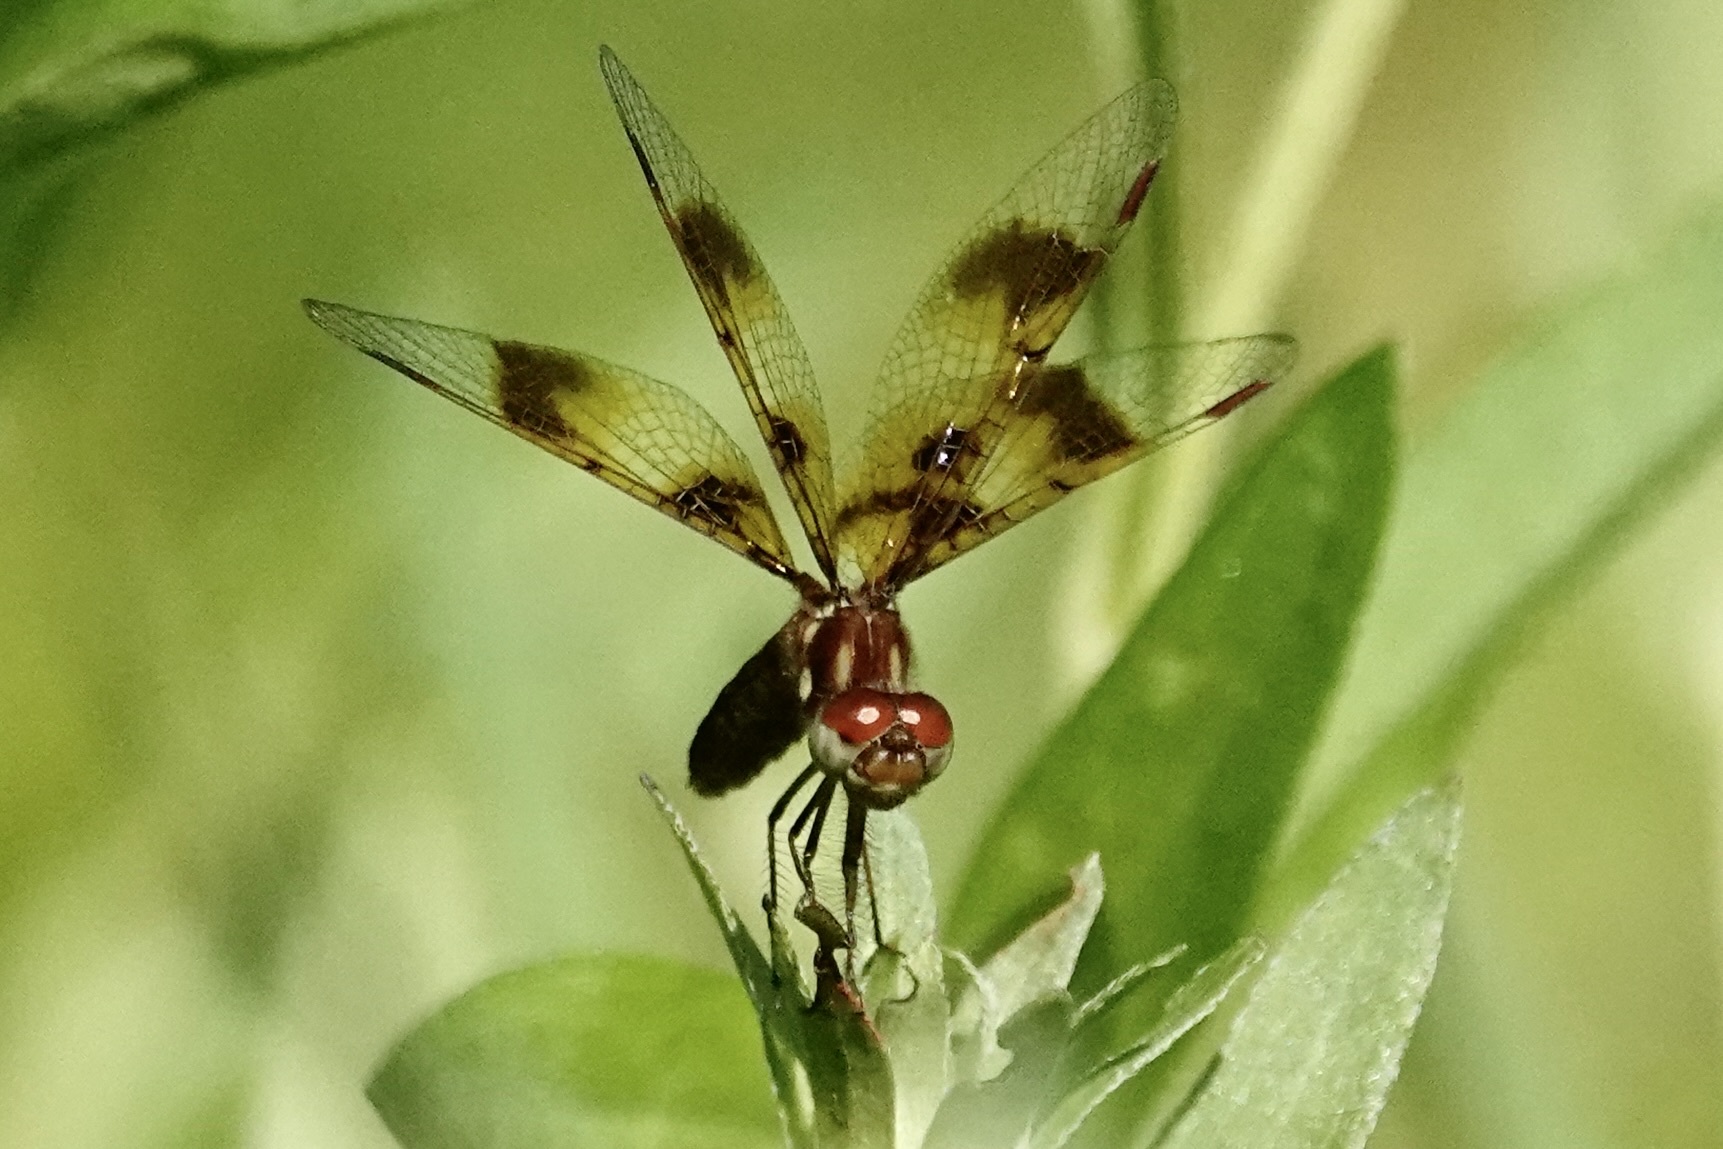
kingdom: Animalia
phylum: Arthropoda
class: Insecta
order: Odonata
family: Libellulidae
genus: Perithemis
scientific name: Perithemis tenera
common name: Eastern amberwing
